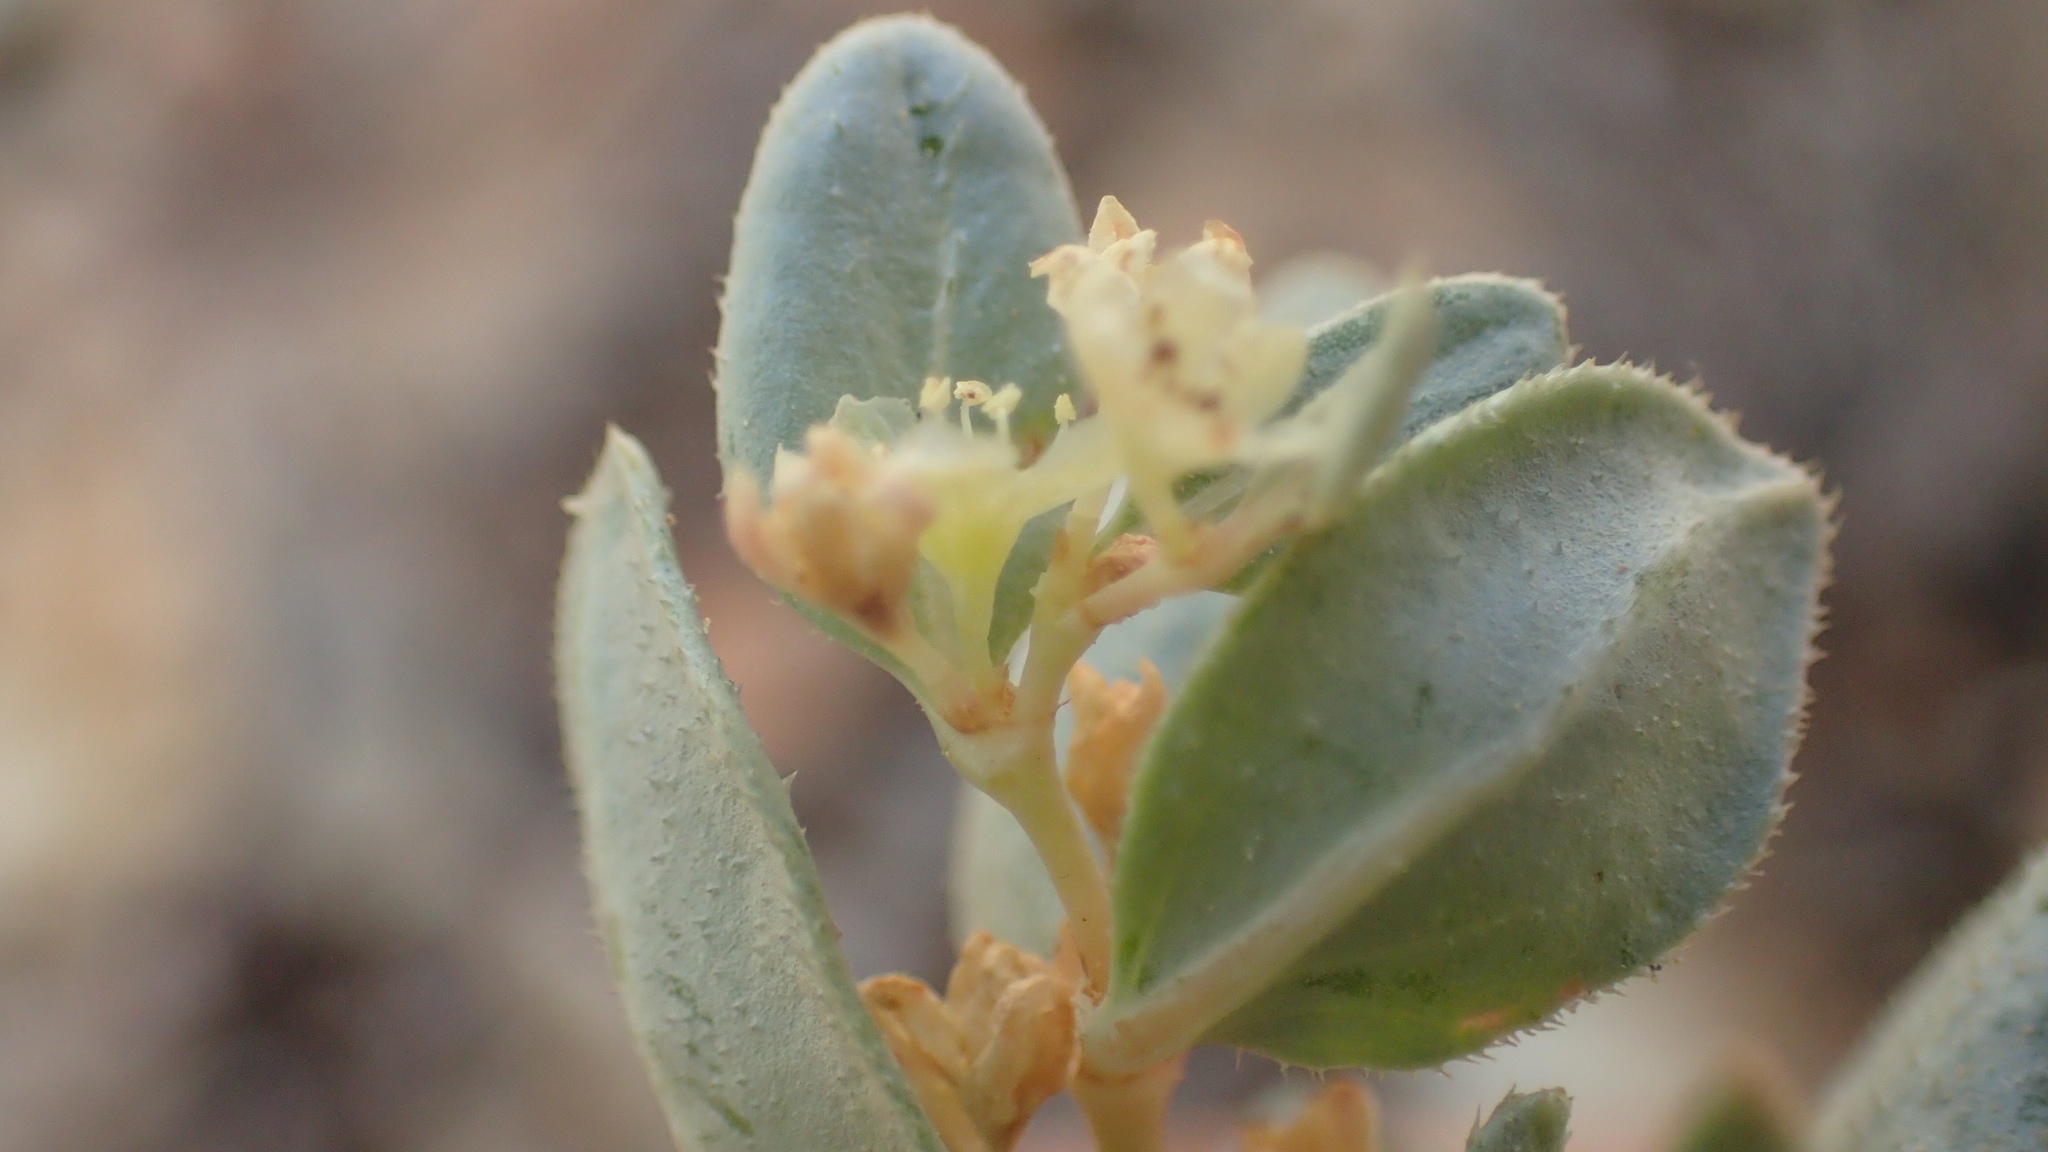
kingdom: Plantae
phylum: Tracheophyta
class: Magnoliopsida
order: Caryophyllales
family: Polygonaceae
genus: Koenigia
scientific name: Koenigia davisiae
